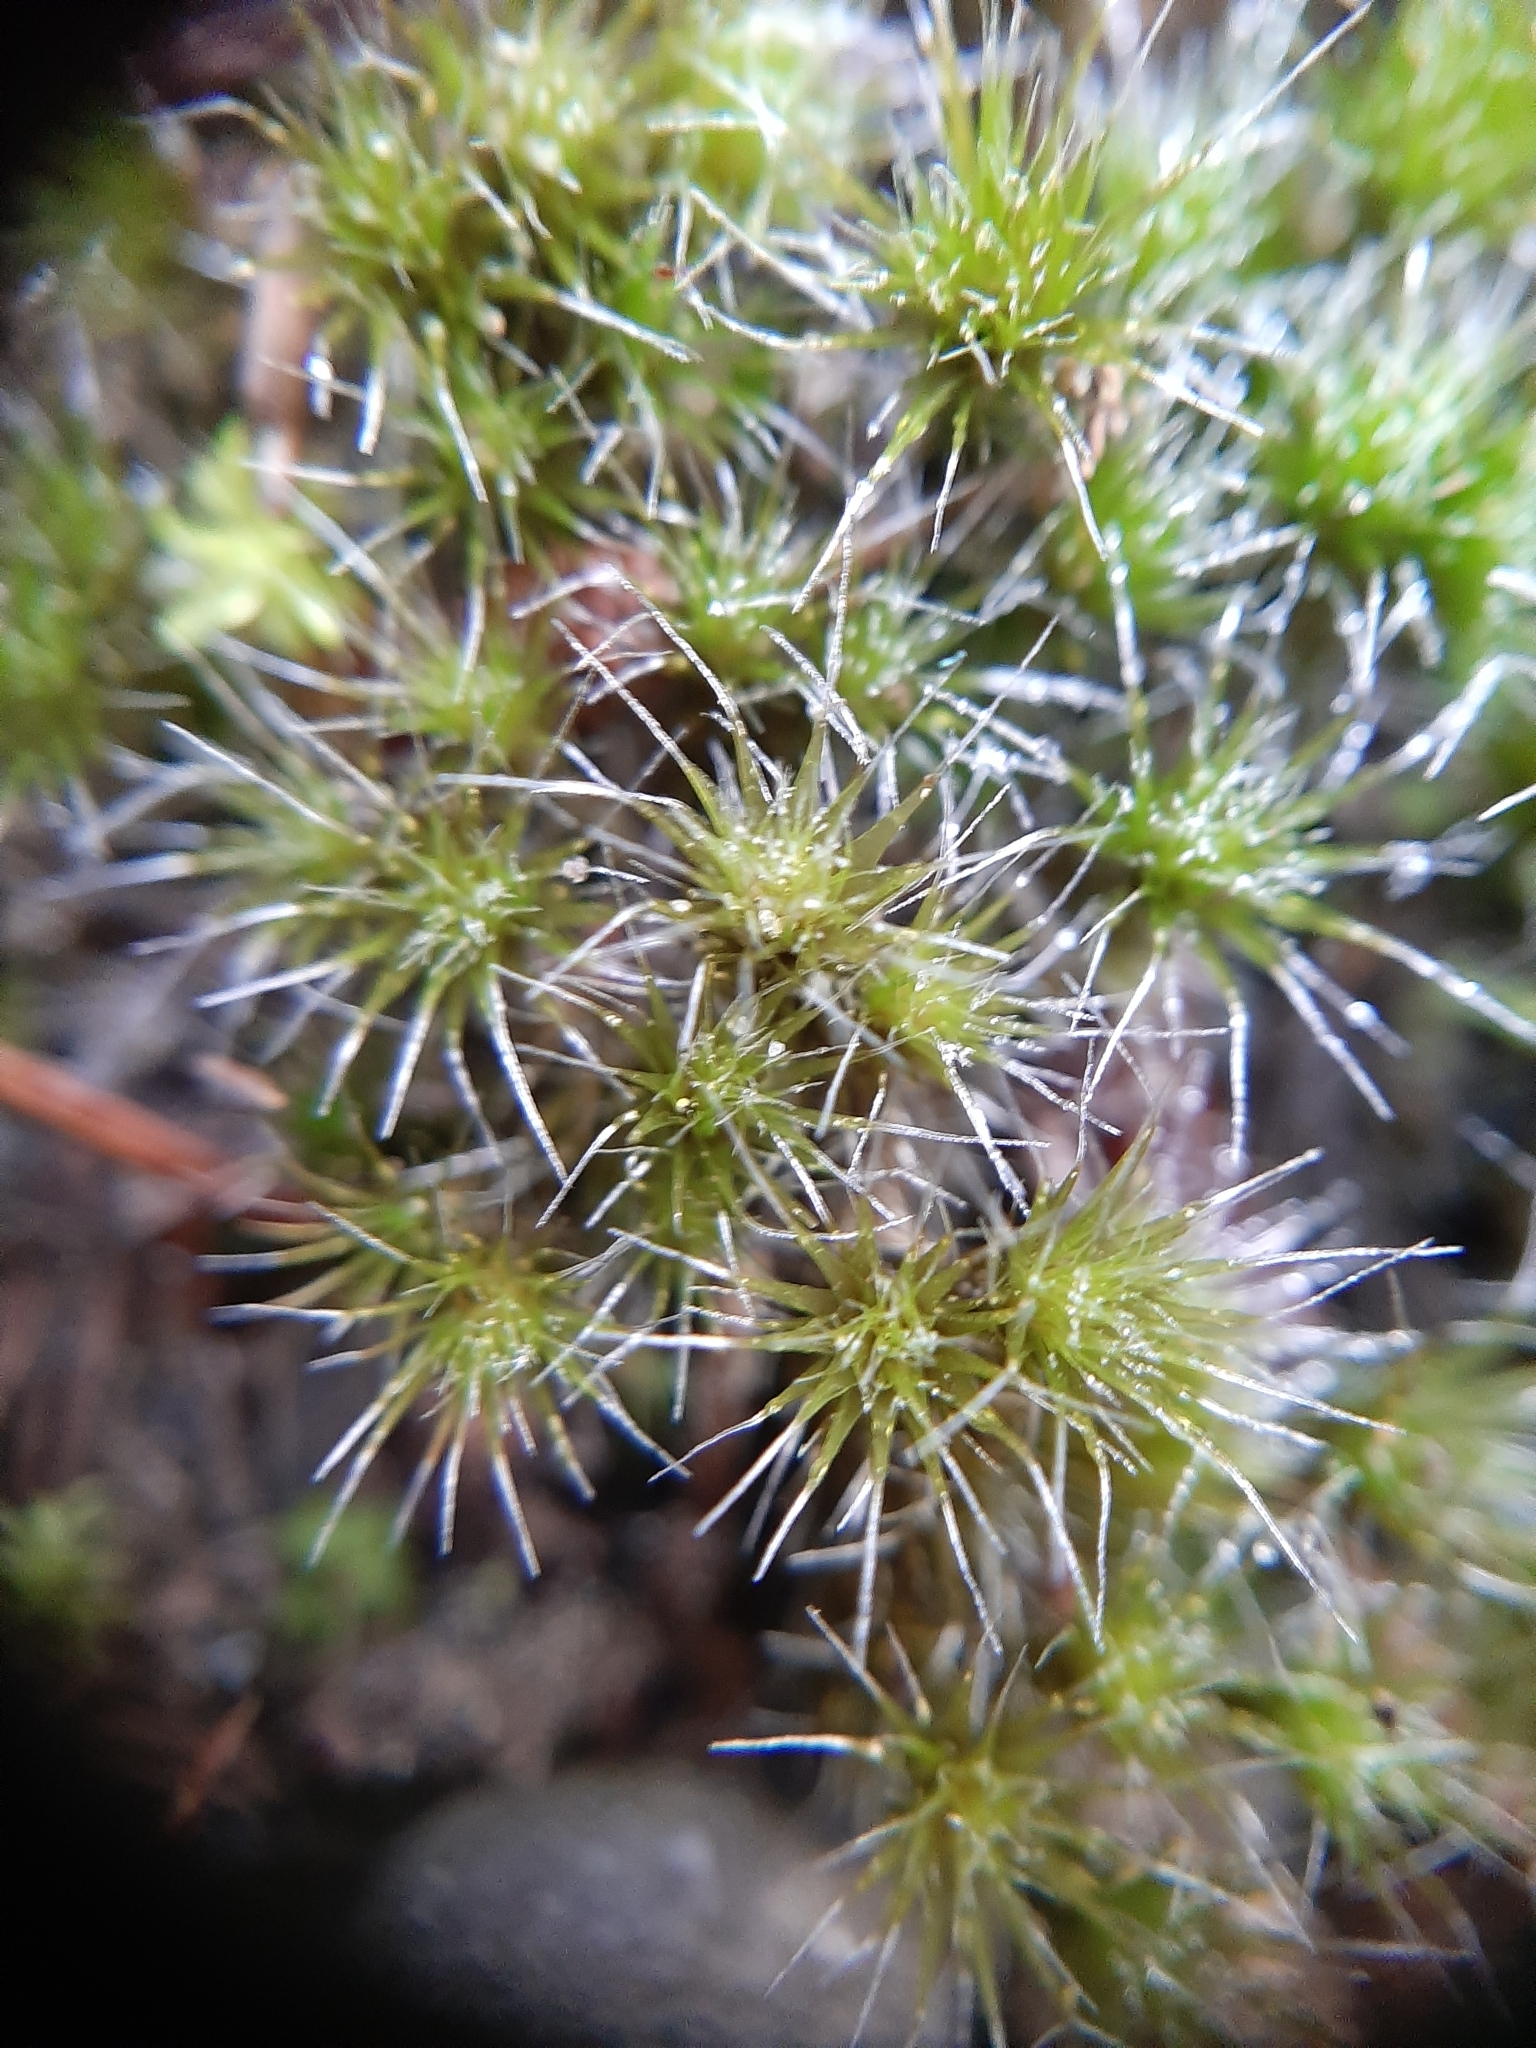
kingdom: Plantae
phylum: Bryophyta
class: Bryopsida
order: Dicranales
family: Leucobryaceae
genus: Campylopus
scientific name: Campylopus introflexus
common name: Heath star moss
